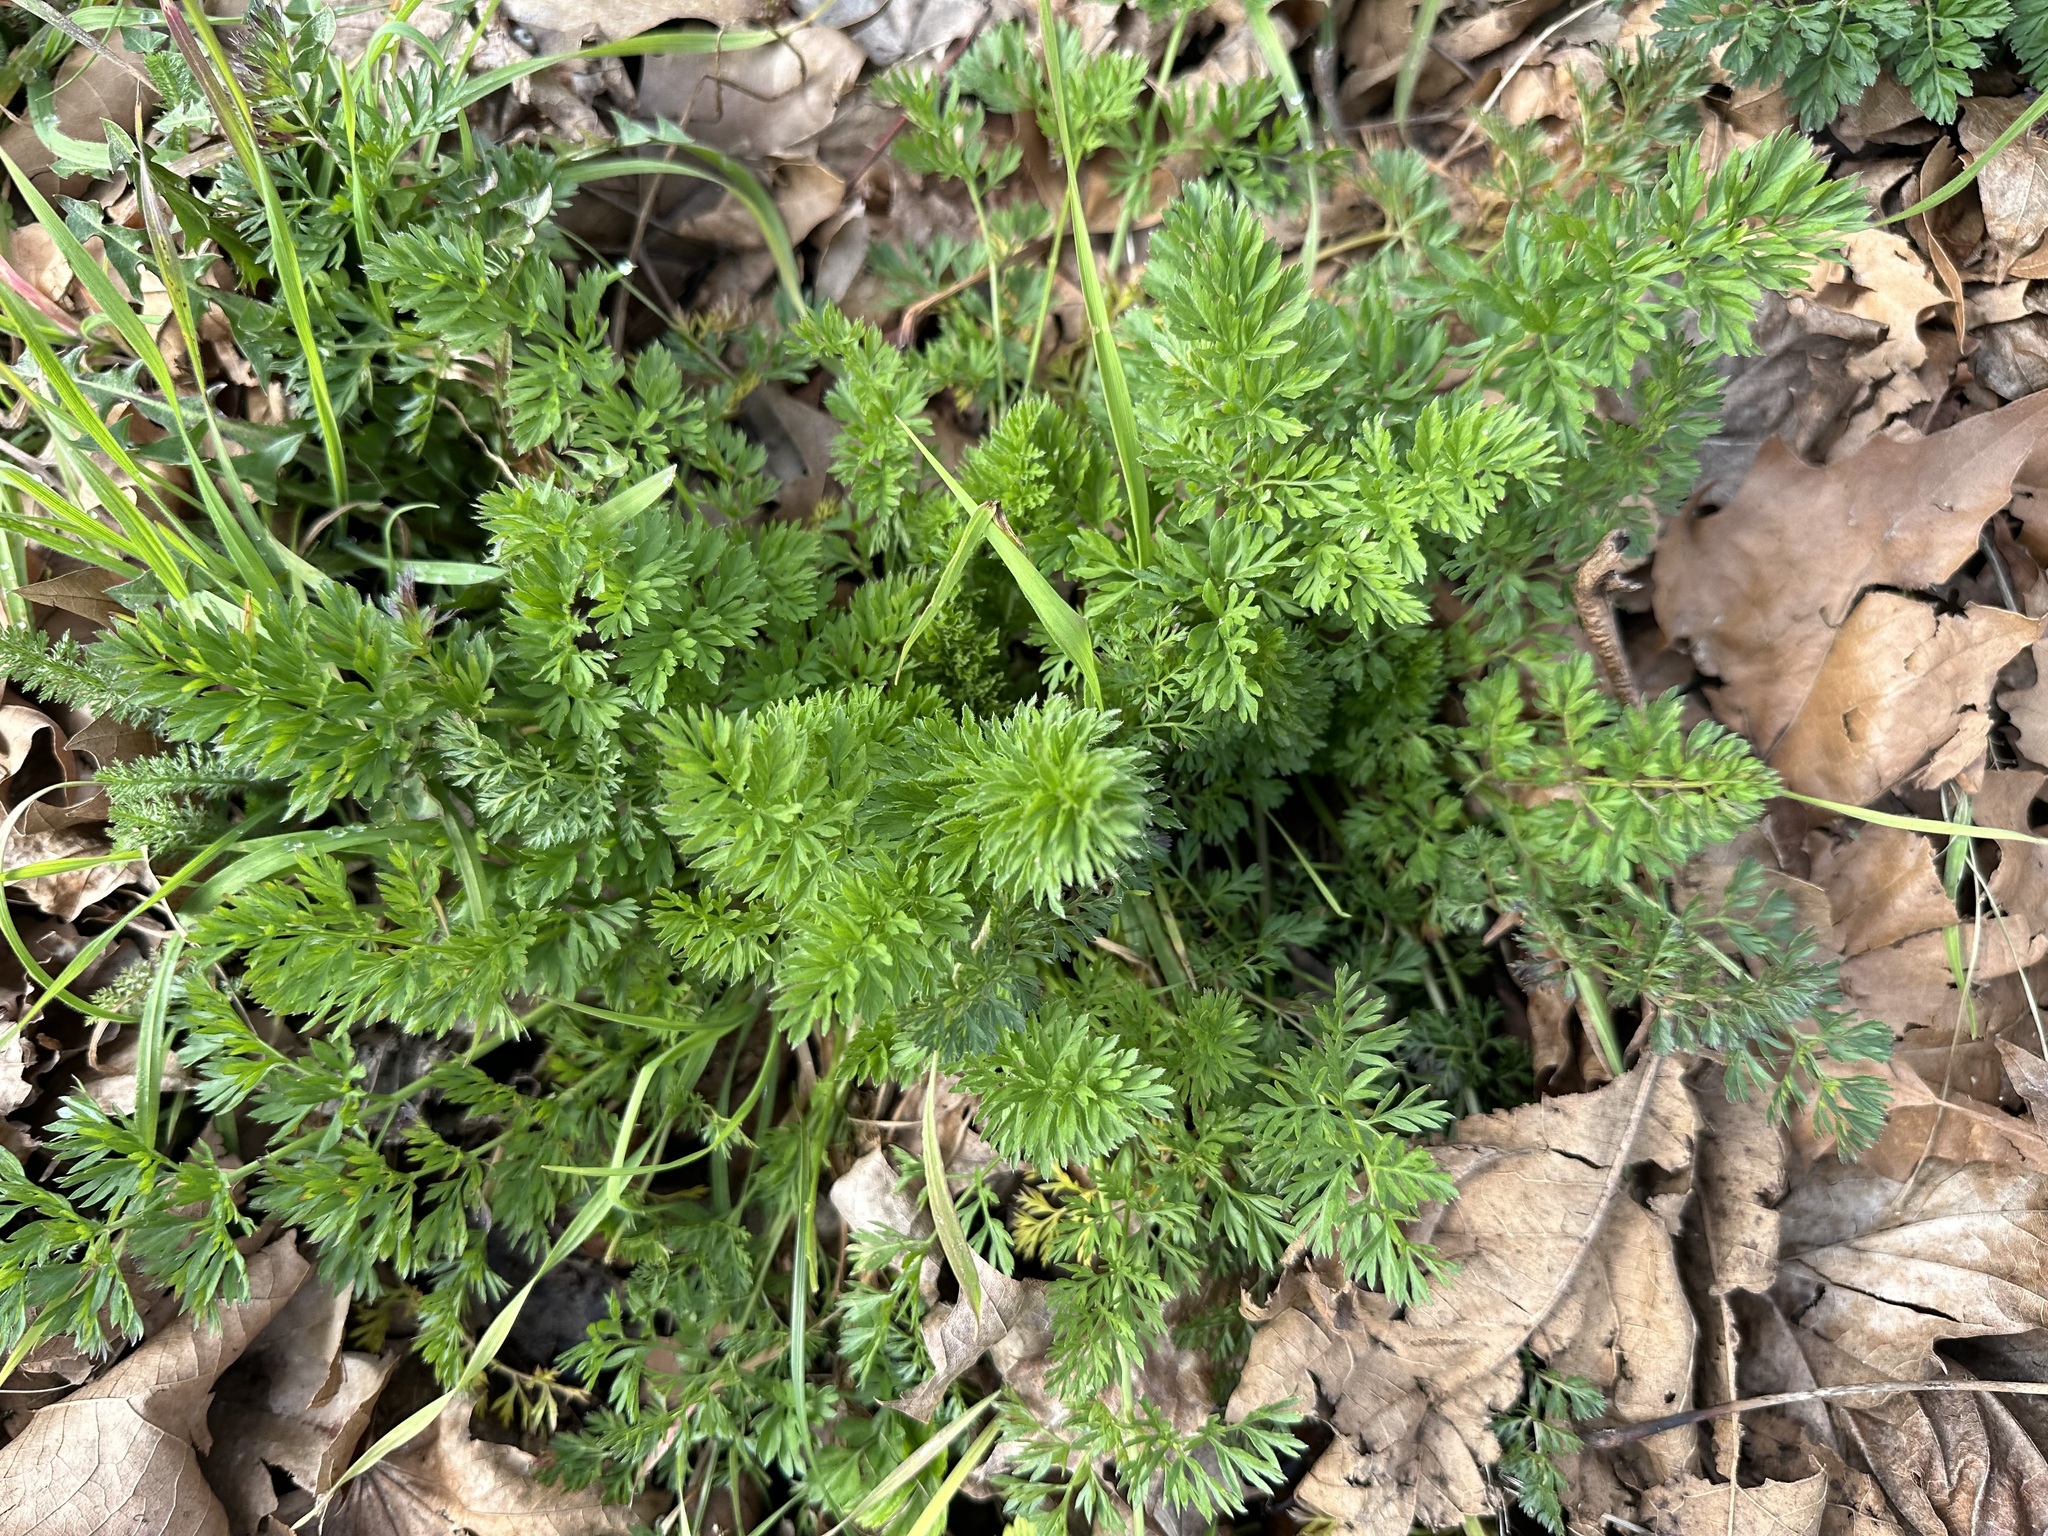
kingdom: Plantae
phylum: Tracheophyta
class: Magnoliopsida
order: Apiales
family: Apiaceae
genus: Daucus
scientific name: Daucus carota
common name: Wild carrot
